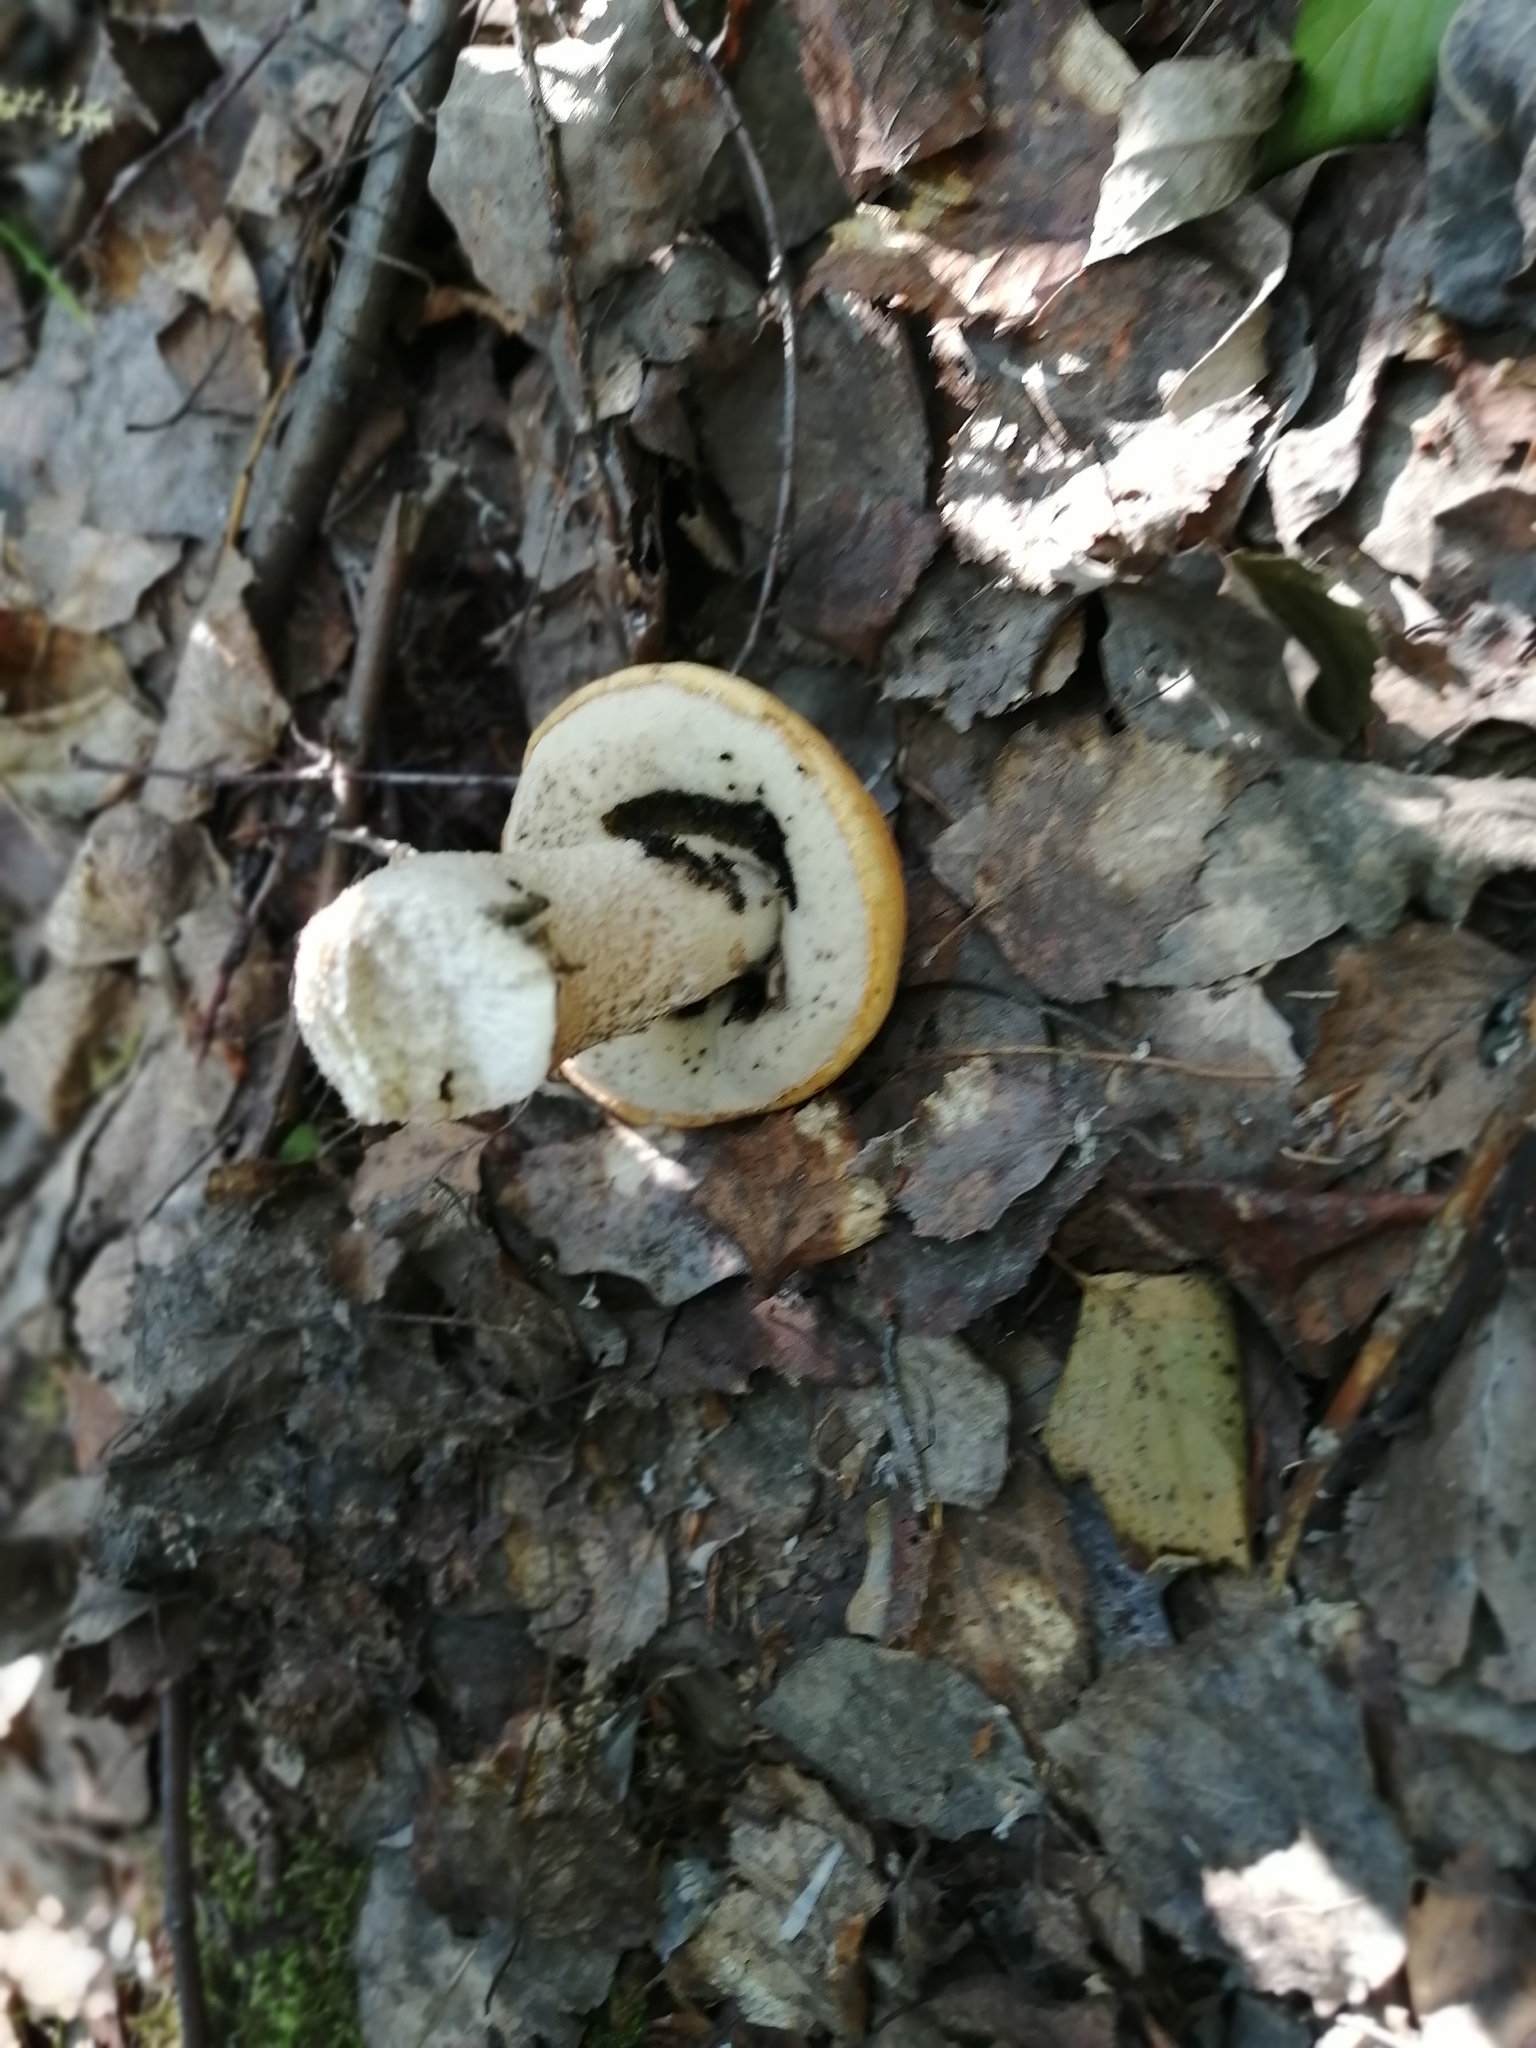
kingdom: Fungi
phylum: Basidiomycota
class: Agaricomycetes
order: Boletales
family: Boletaceae
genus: Leccinum
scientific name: Leccinum albostipitatum
